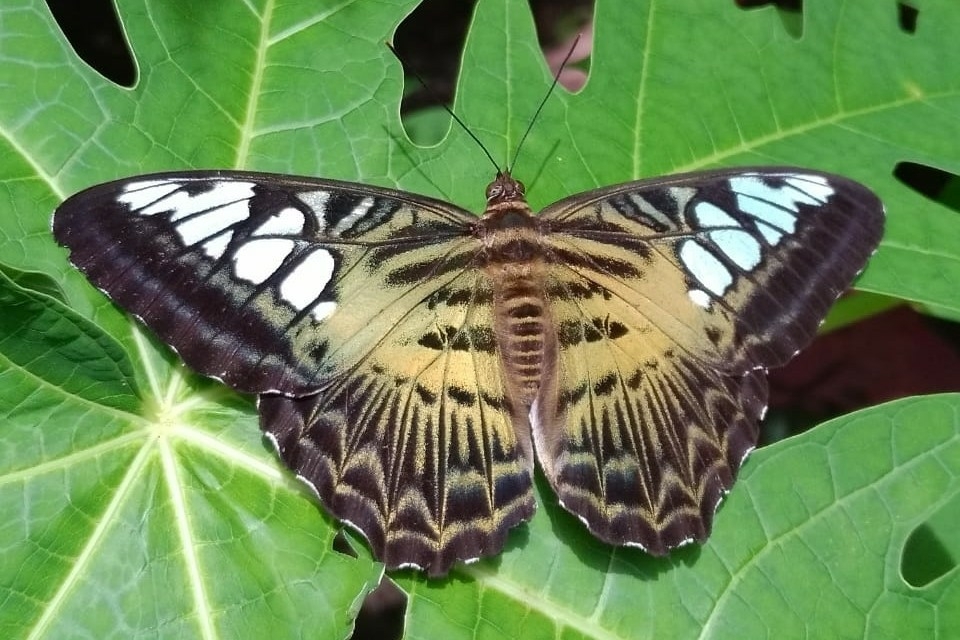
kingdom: Animalia
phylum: Arthropoda
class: Insecta
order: Lepidoptera
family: Nymphalidae
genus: Kallima
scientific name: Kallima sylvia
